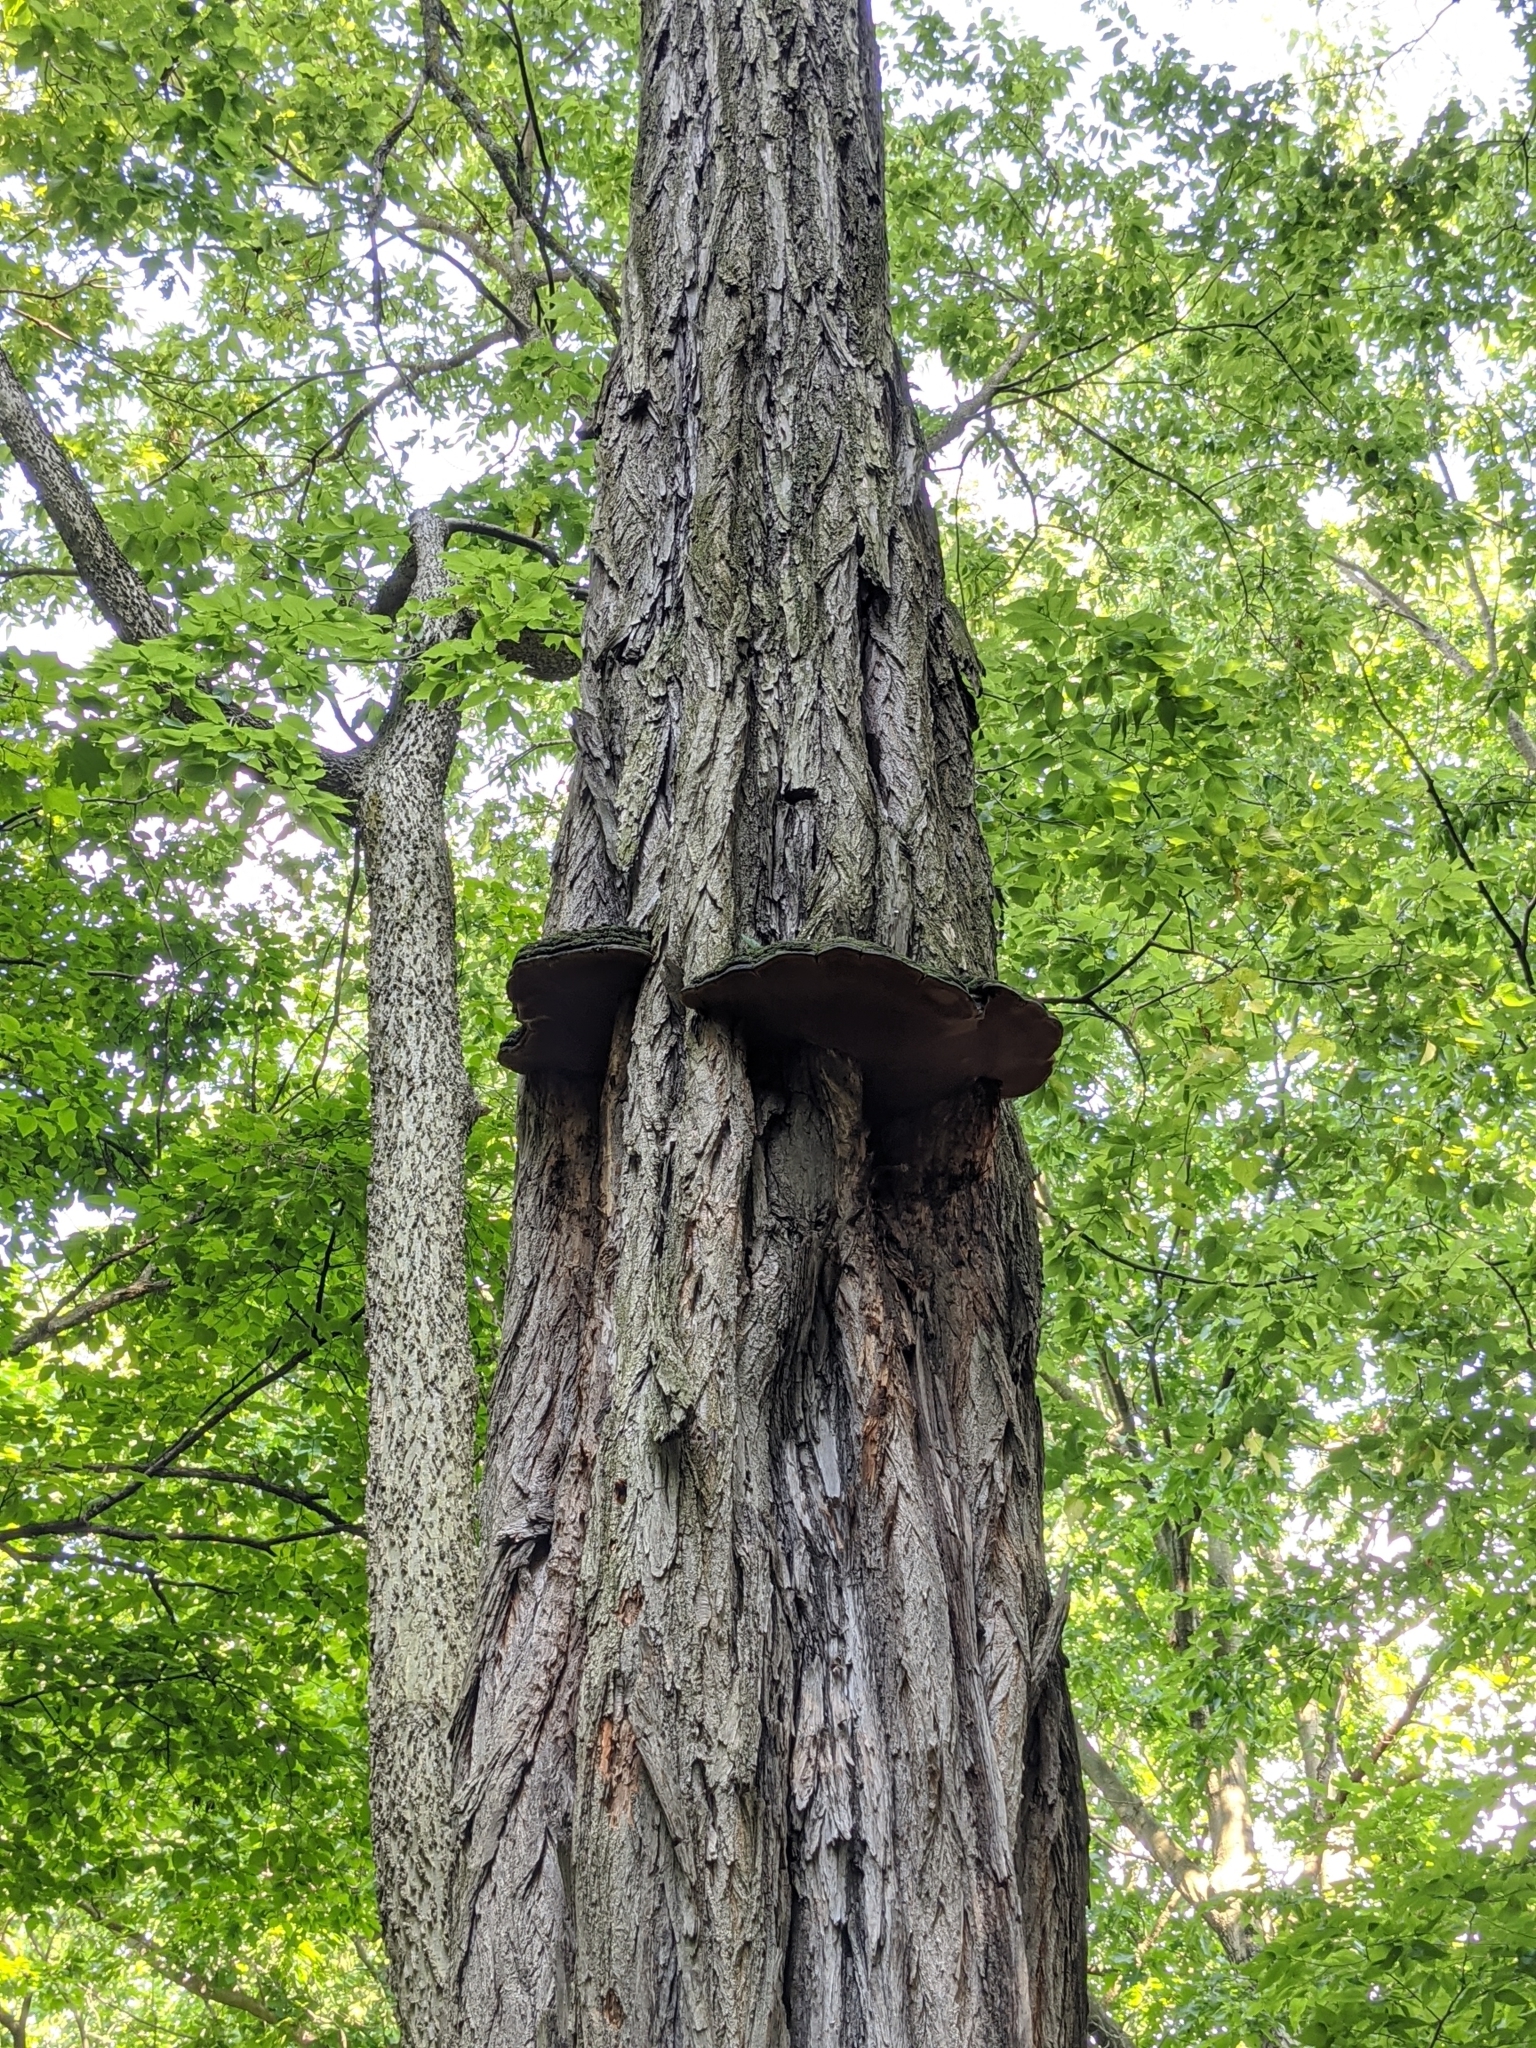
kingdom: Fungi
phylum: Basidiomycota
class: Agaricomycetes
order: Hymenochaetales
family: Hymenochaetaceae
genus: Phellinus
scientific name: Phellinus robiniae
